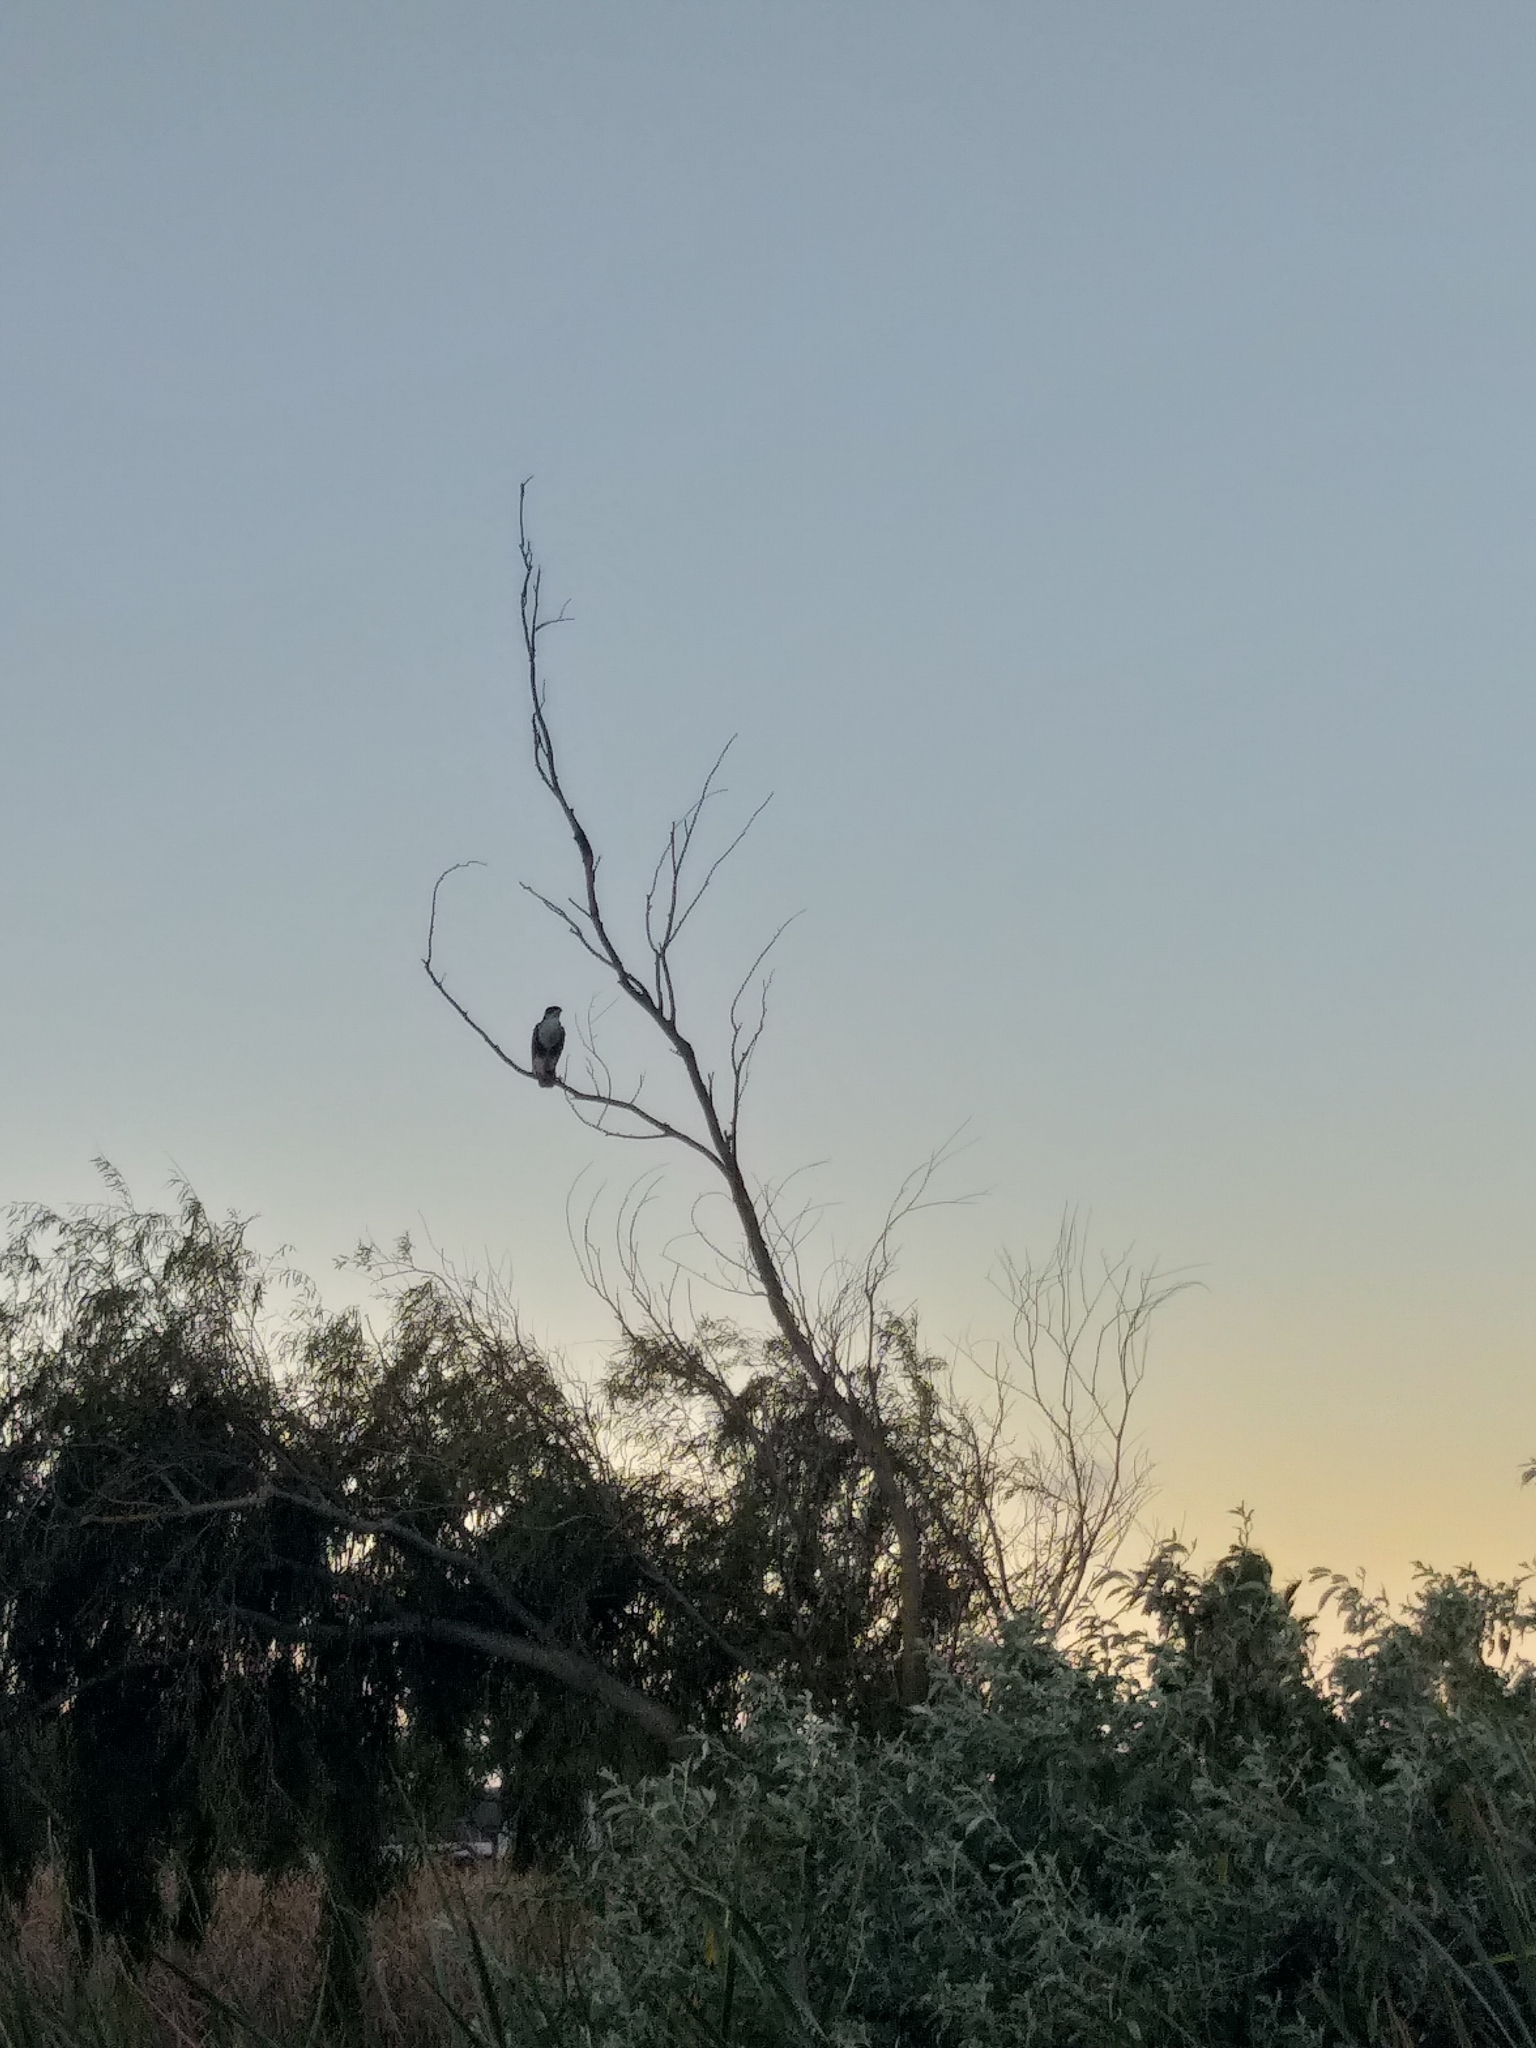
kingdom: Animalia
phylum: Chordata
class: Aves
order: Accipitriformes
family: Accipitridae
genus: Accipiter
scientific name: Accipiter melanoleucus
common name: Black sparrowhawk
